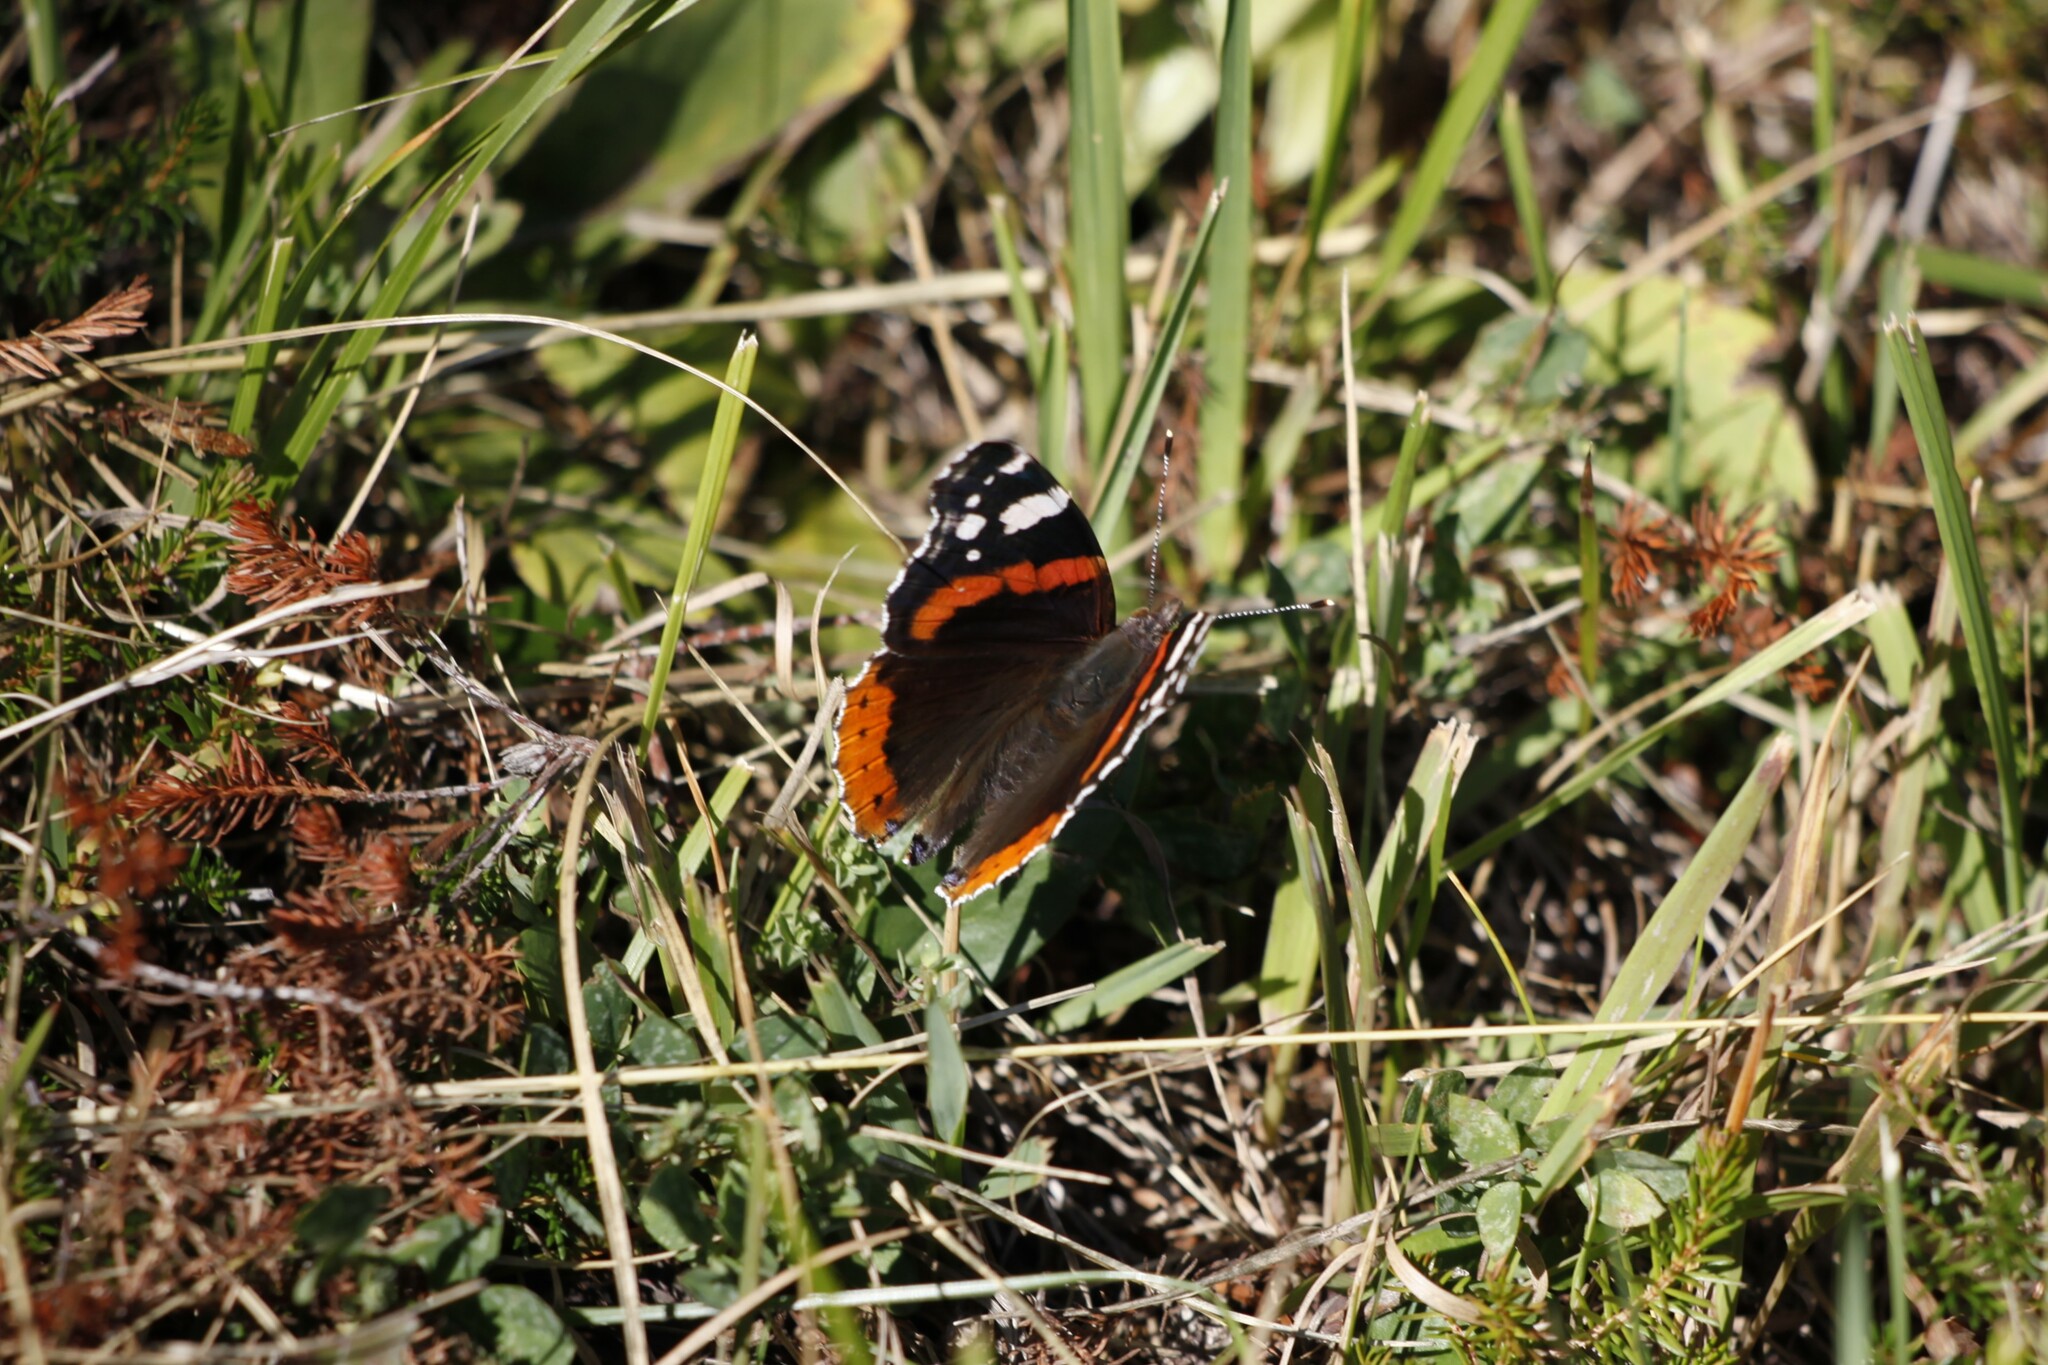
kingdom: Animalia
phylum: Arthropoda
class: Insecta
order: Lepidoptera
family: Nymphalidae
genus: Vanessa
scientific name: Vanessa atalanta
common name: Red admiral
